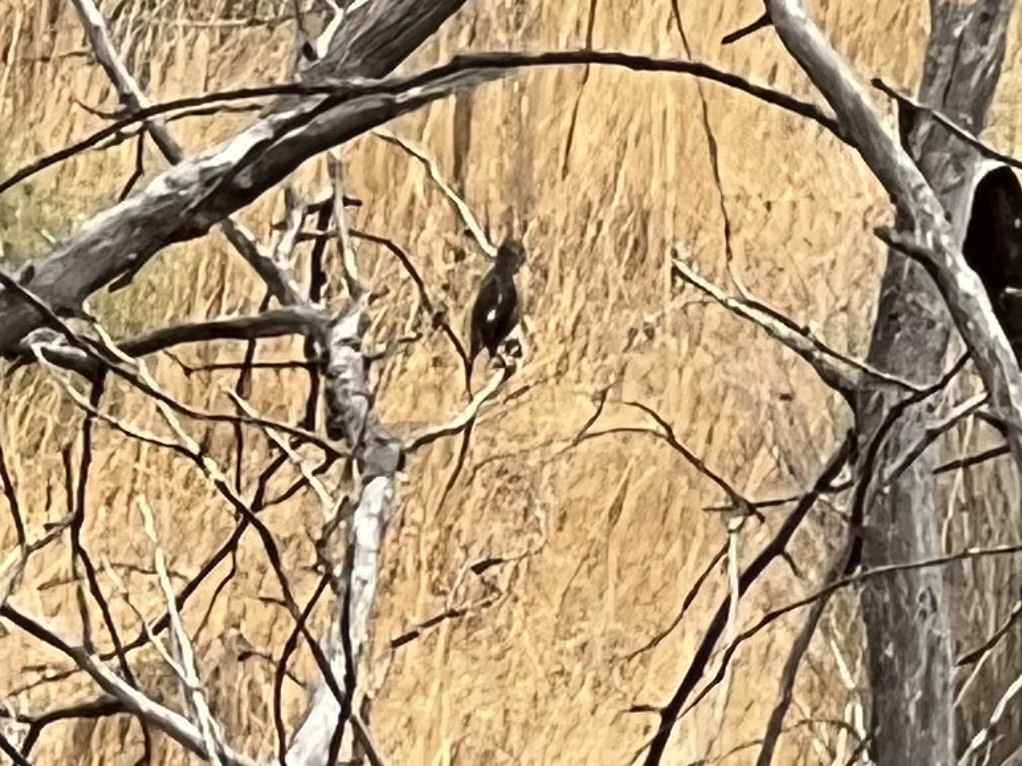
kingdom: Animalia
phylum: Chordata
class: Aves
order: Passeriformes
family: Muscicapidae
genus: Saxicola
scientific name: Saxicola rubicola
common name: European stonechat
